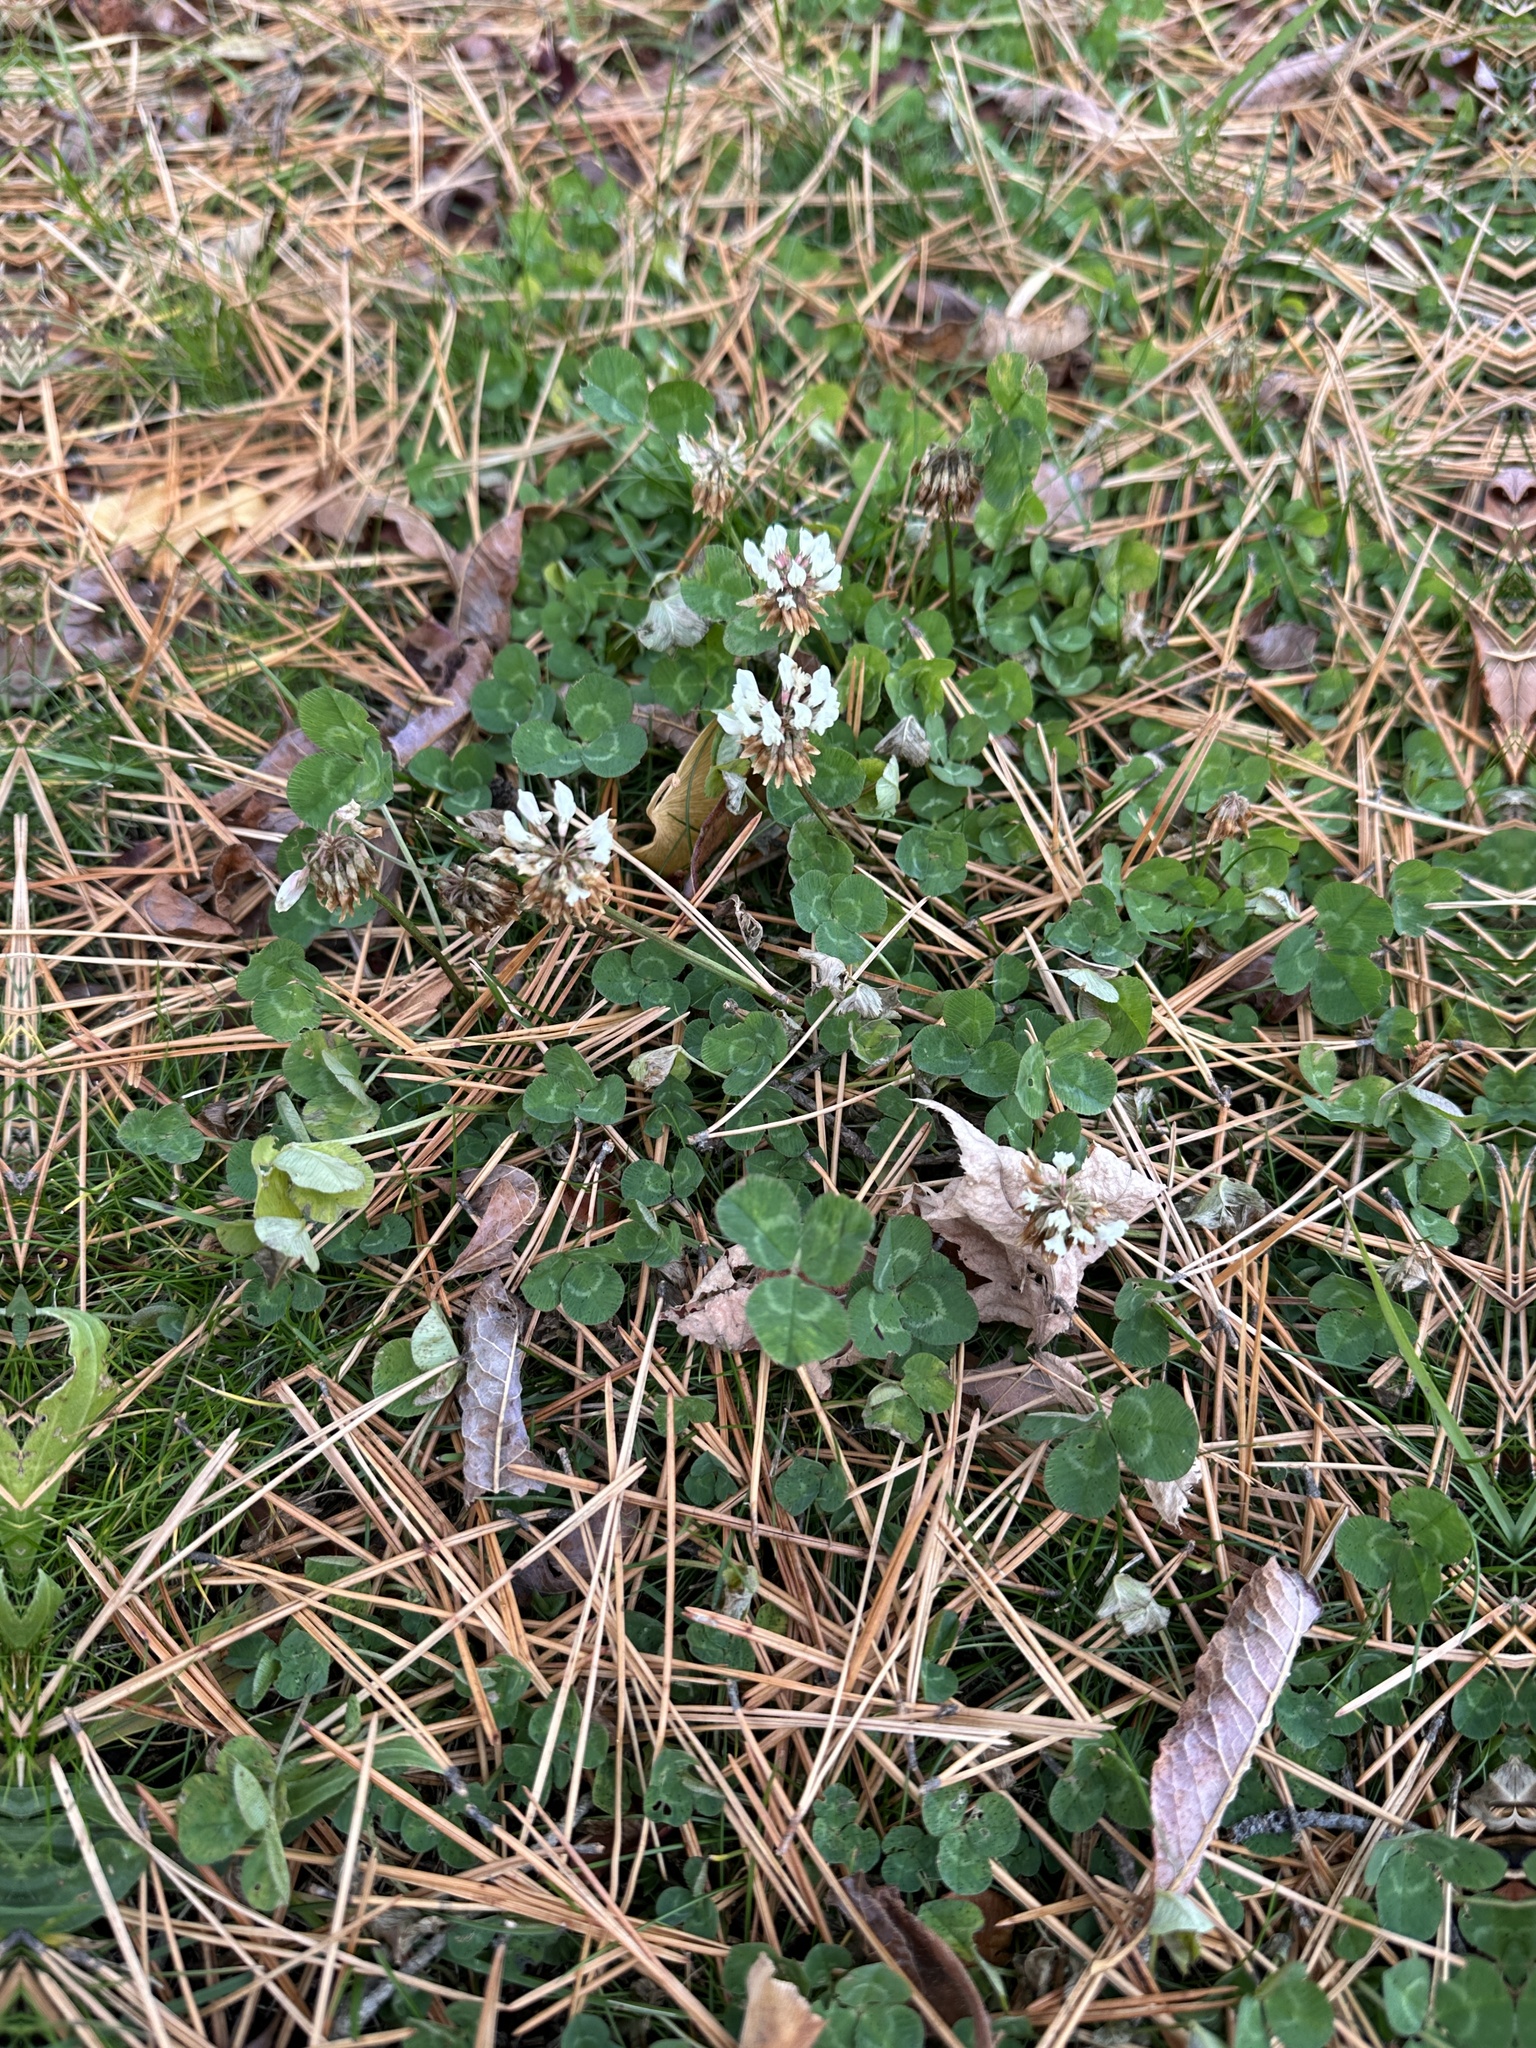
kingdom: Plantae
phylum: Tracheophyta
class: Magnoliopsida
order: Fabales
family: Fabaceae
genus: Trifolium
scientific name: Trifolium repens
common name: White clover
